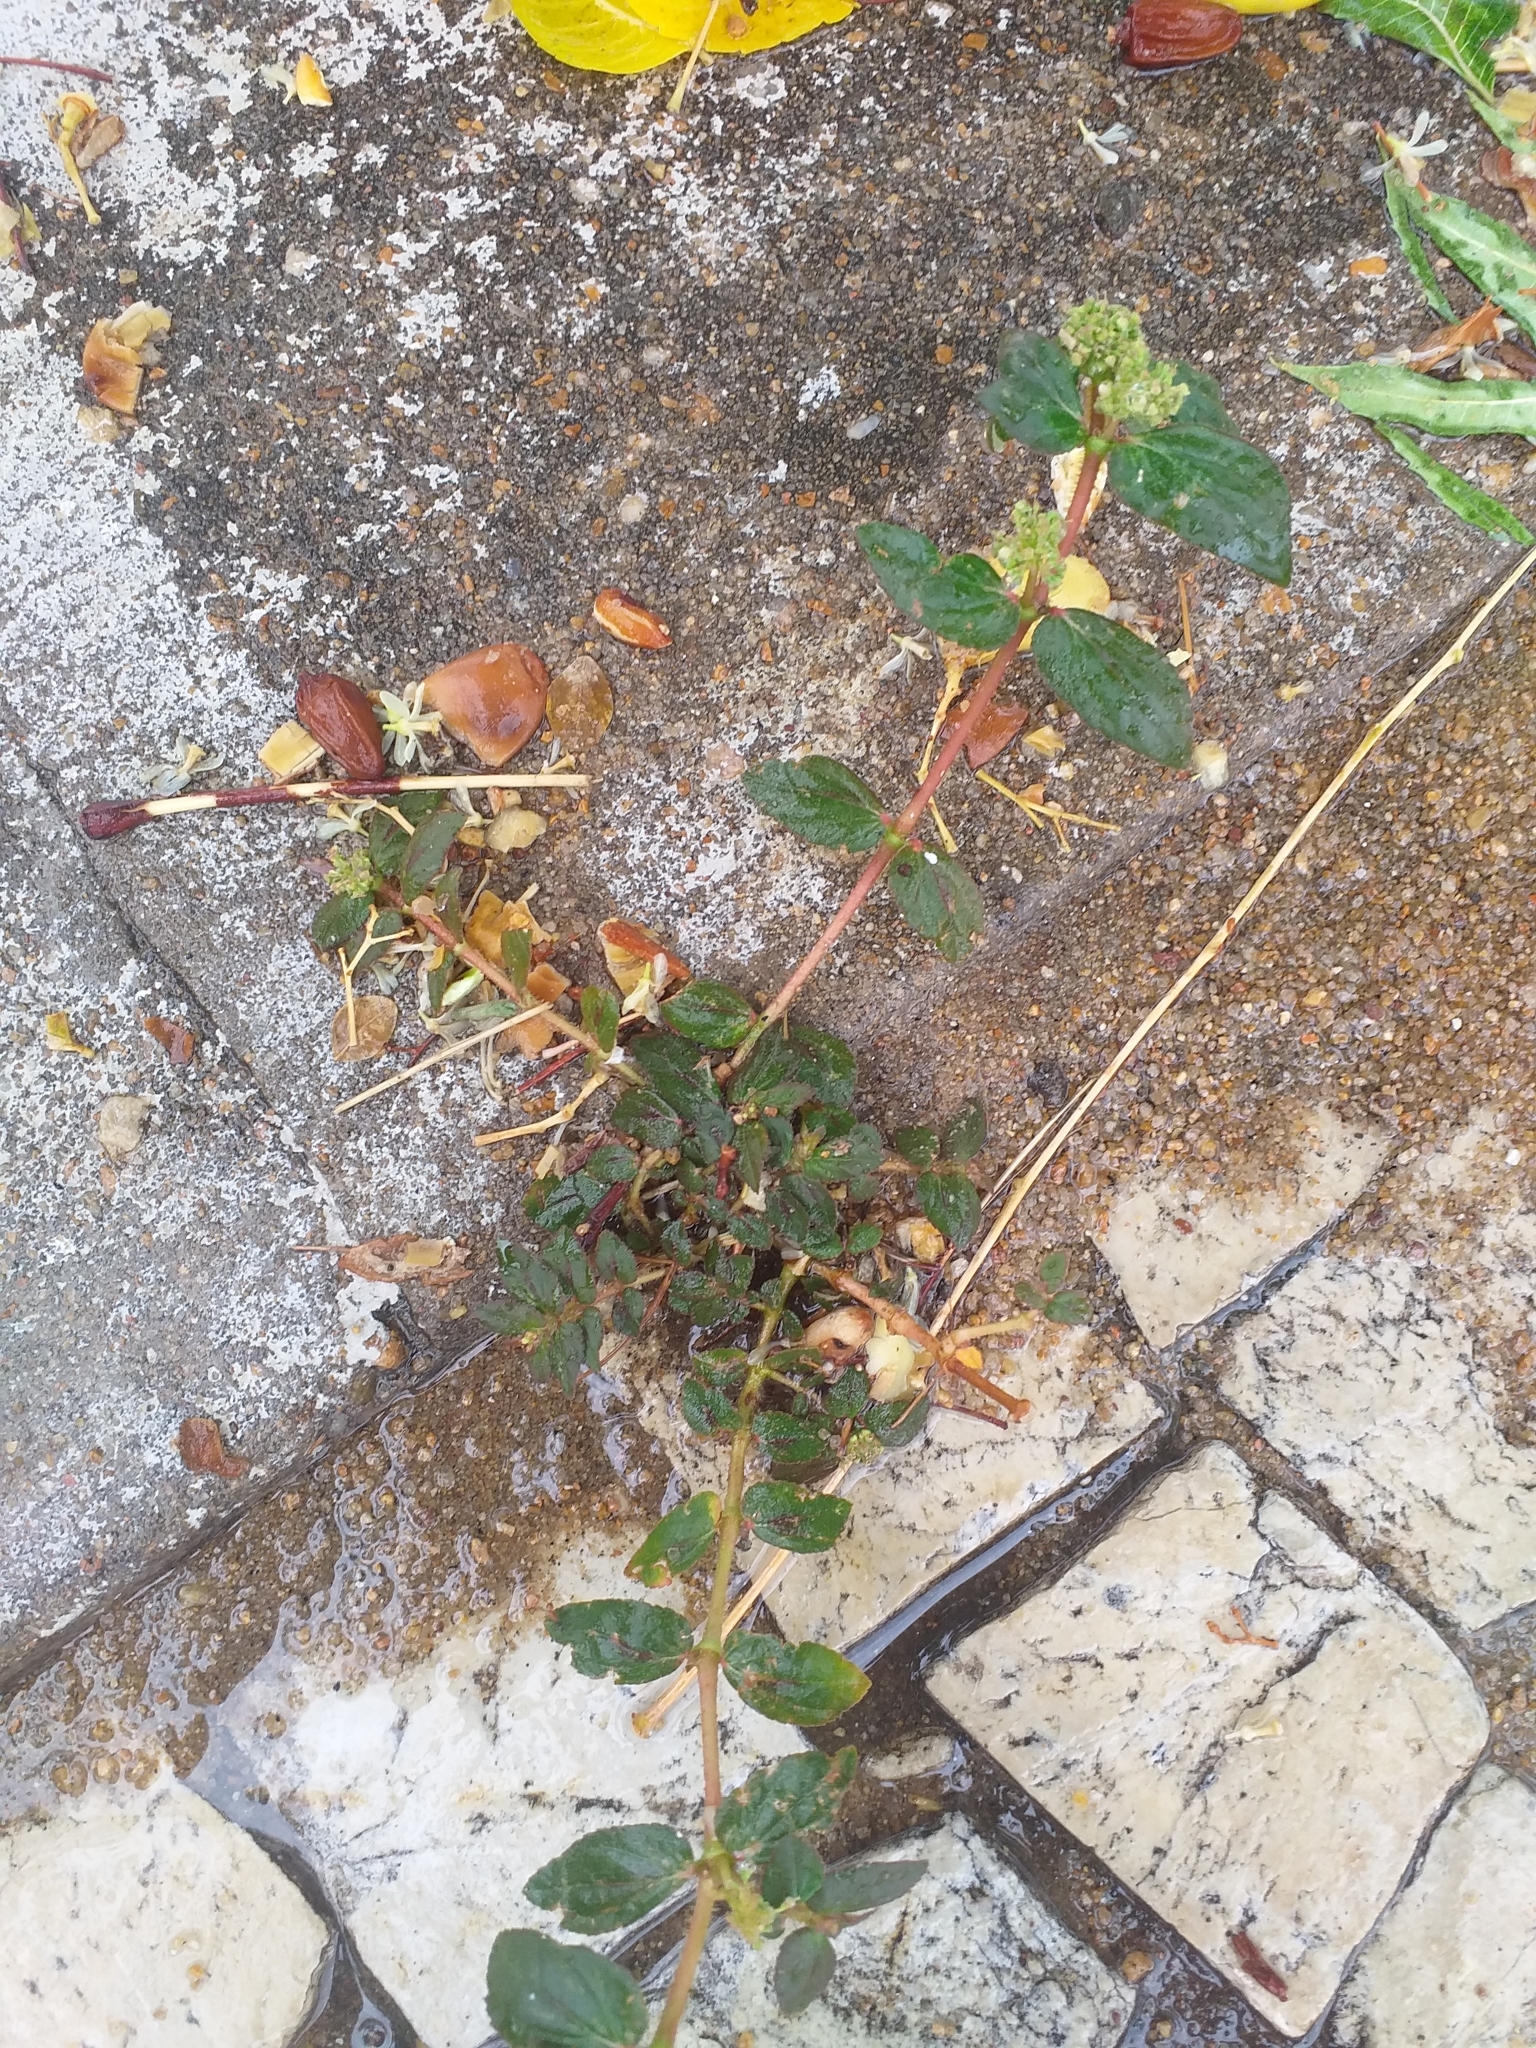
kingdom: Plantae
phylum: Tracheophyta
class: Magnoliopsida
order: Malpighiales
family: Euphorbiaceae
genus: Euphorbia
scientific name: Euphorbia hirta
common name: Pillpod sandmat
